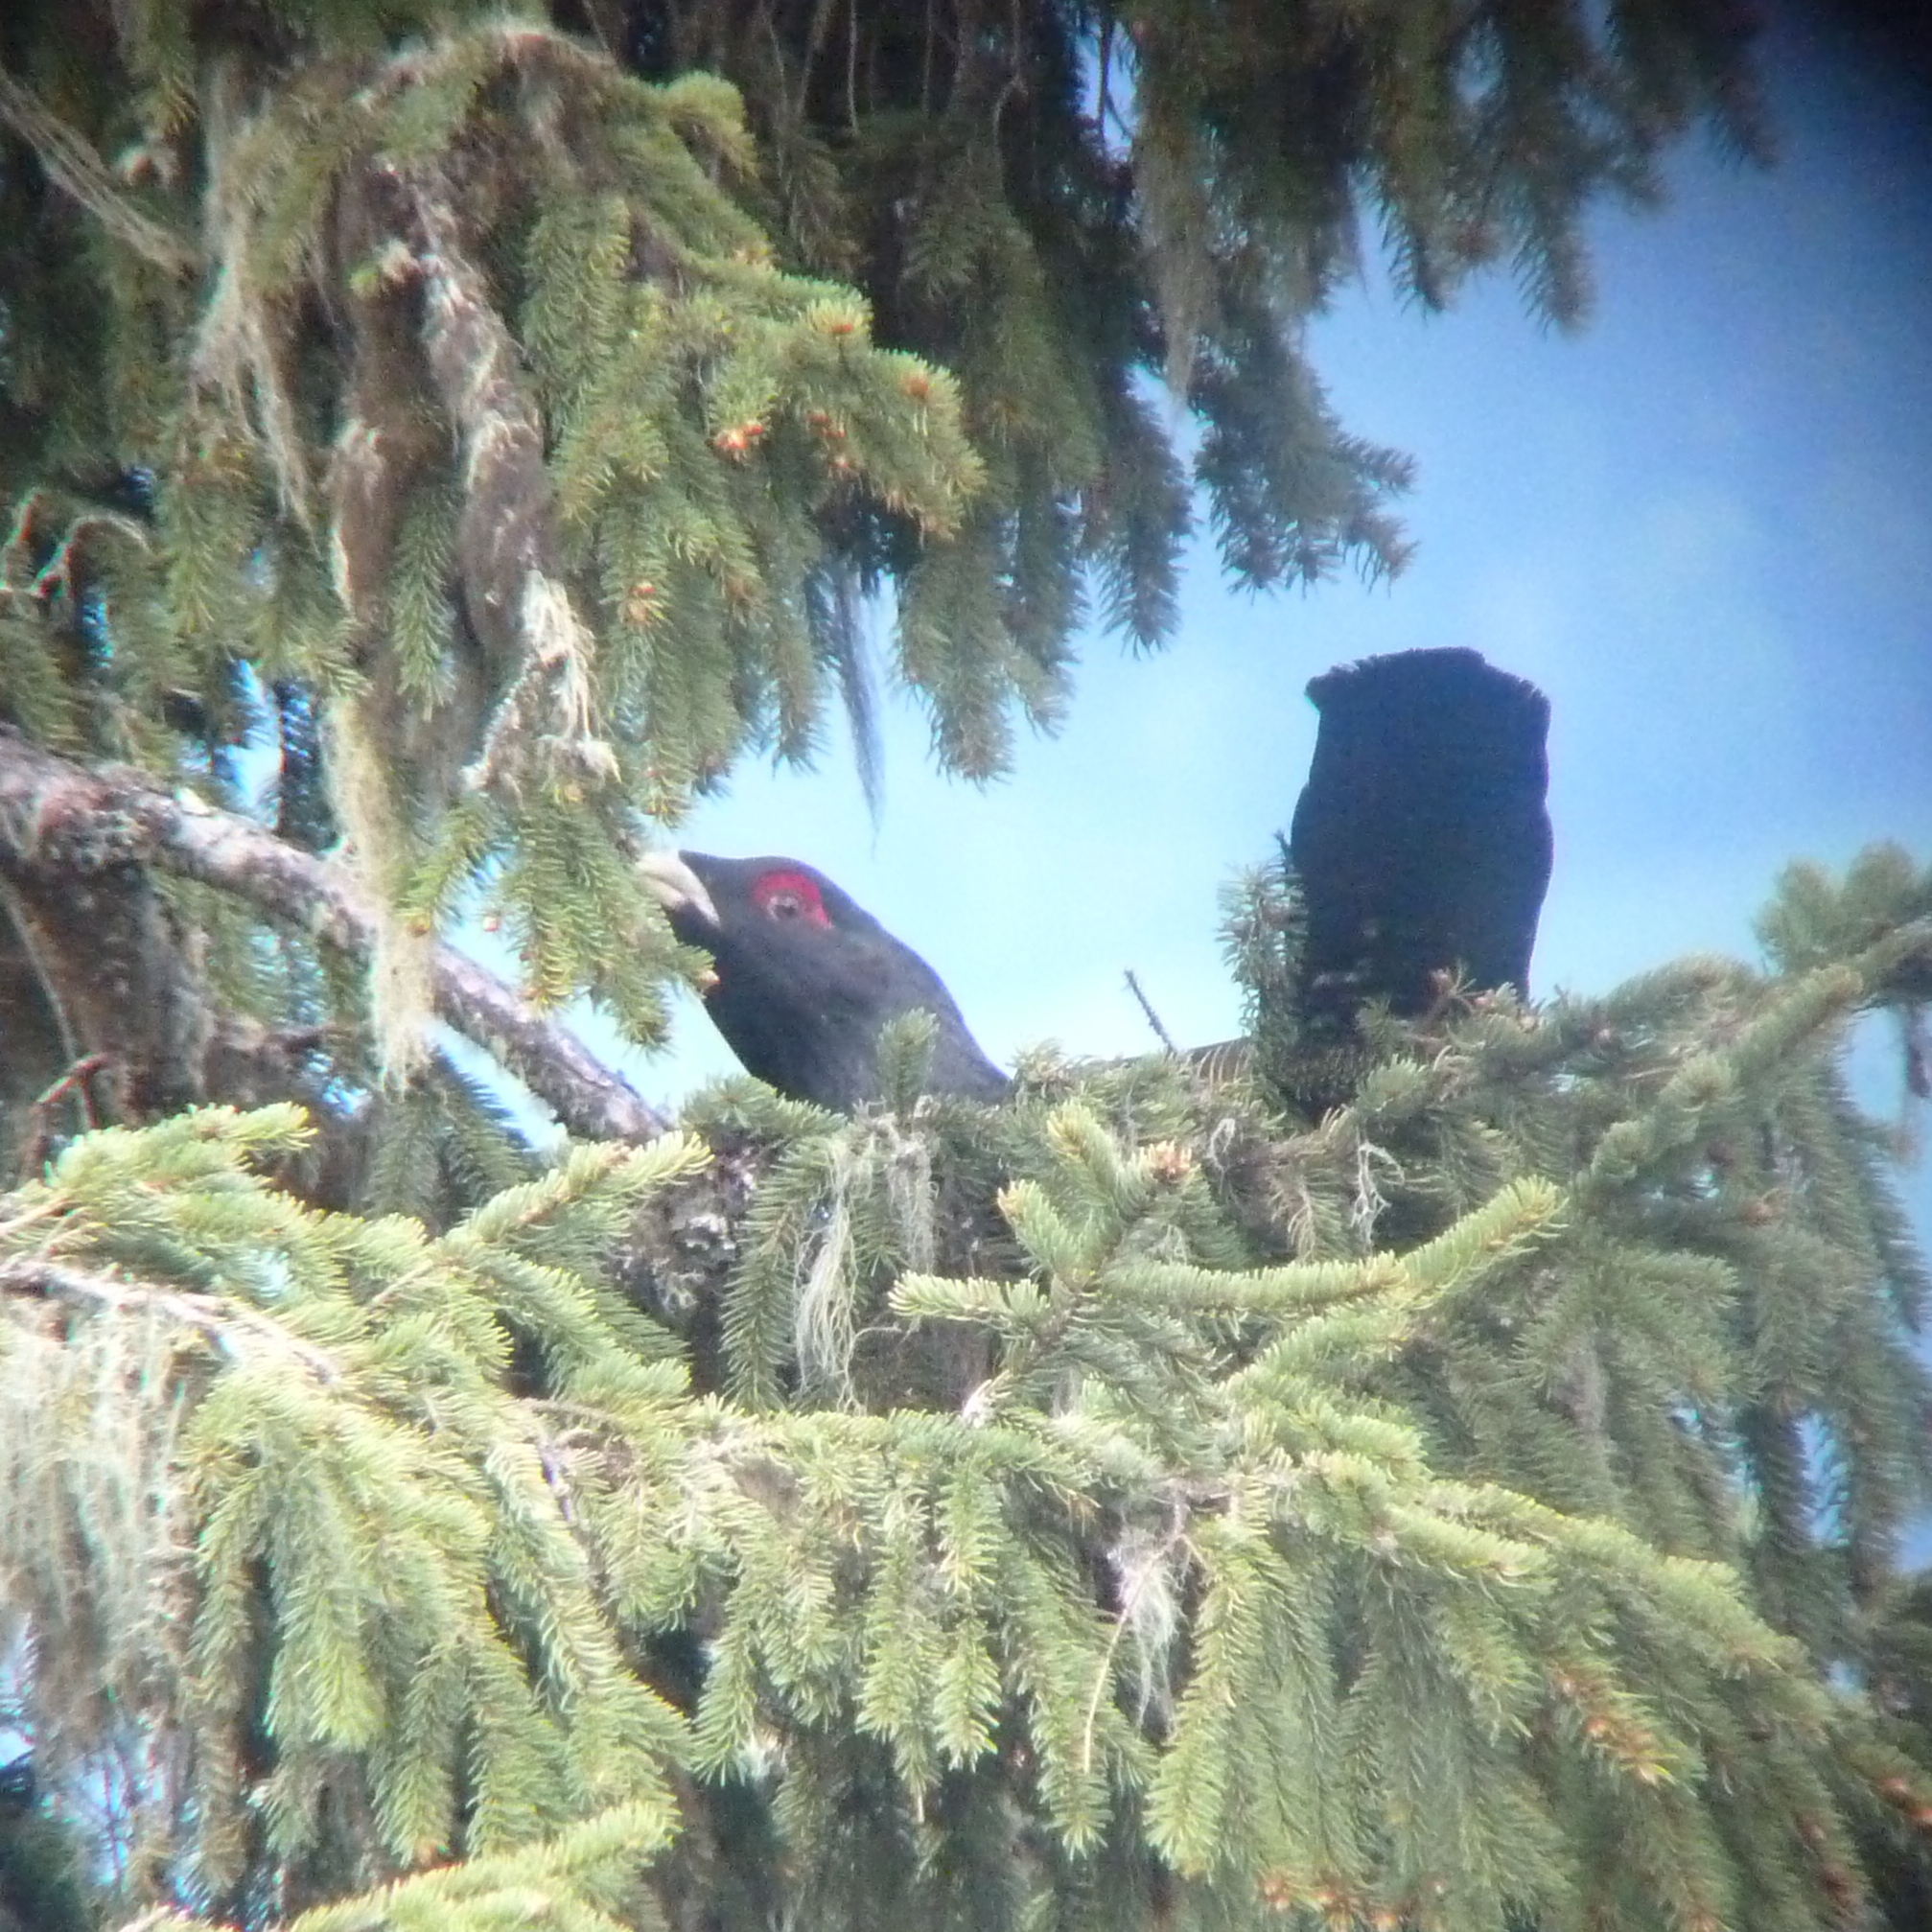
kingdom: Animalia
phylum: Chordata
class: Aves
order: Galliformes
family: Phasianidae
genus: Tetrao
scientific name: Tetrao urogallus
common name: Western capercaillie
